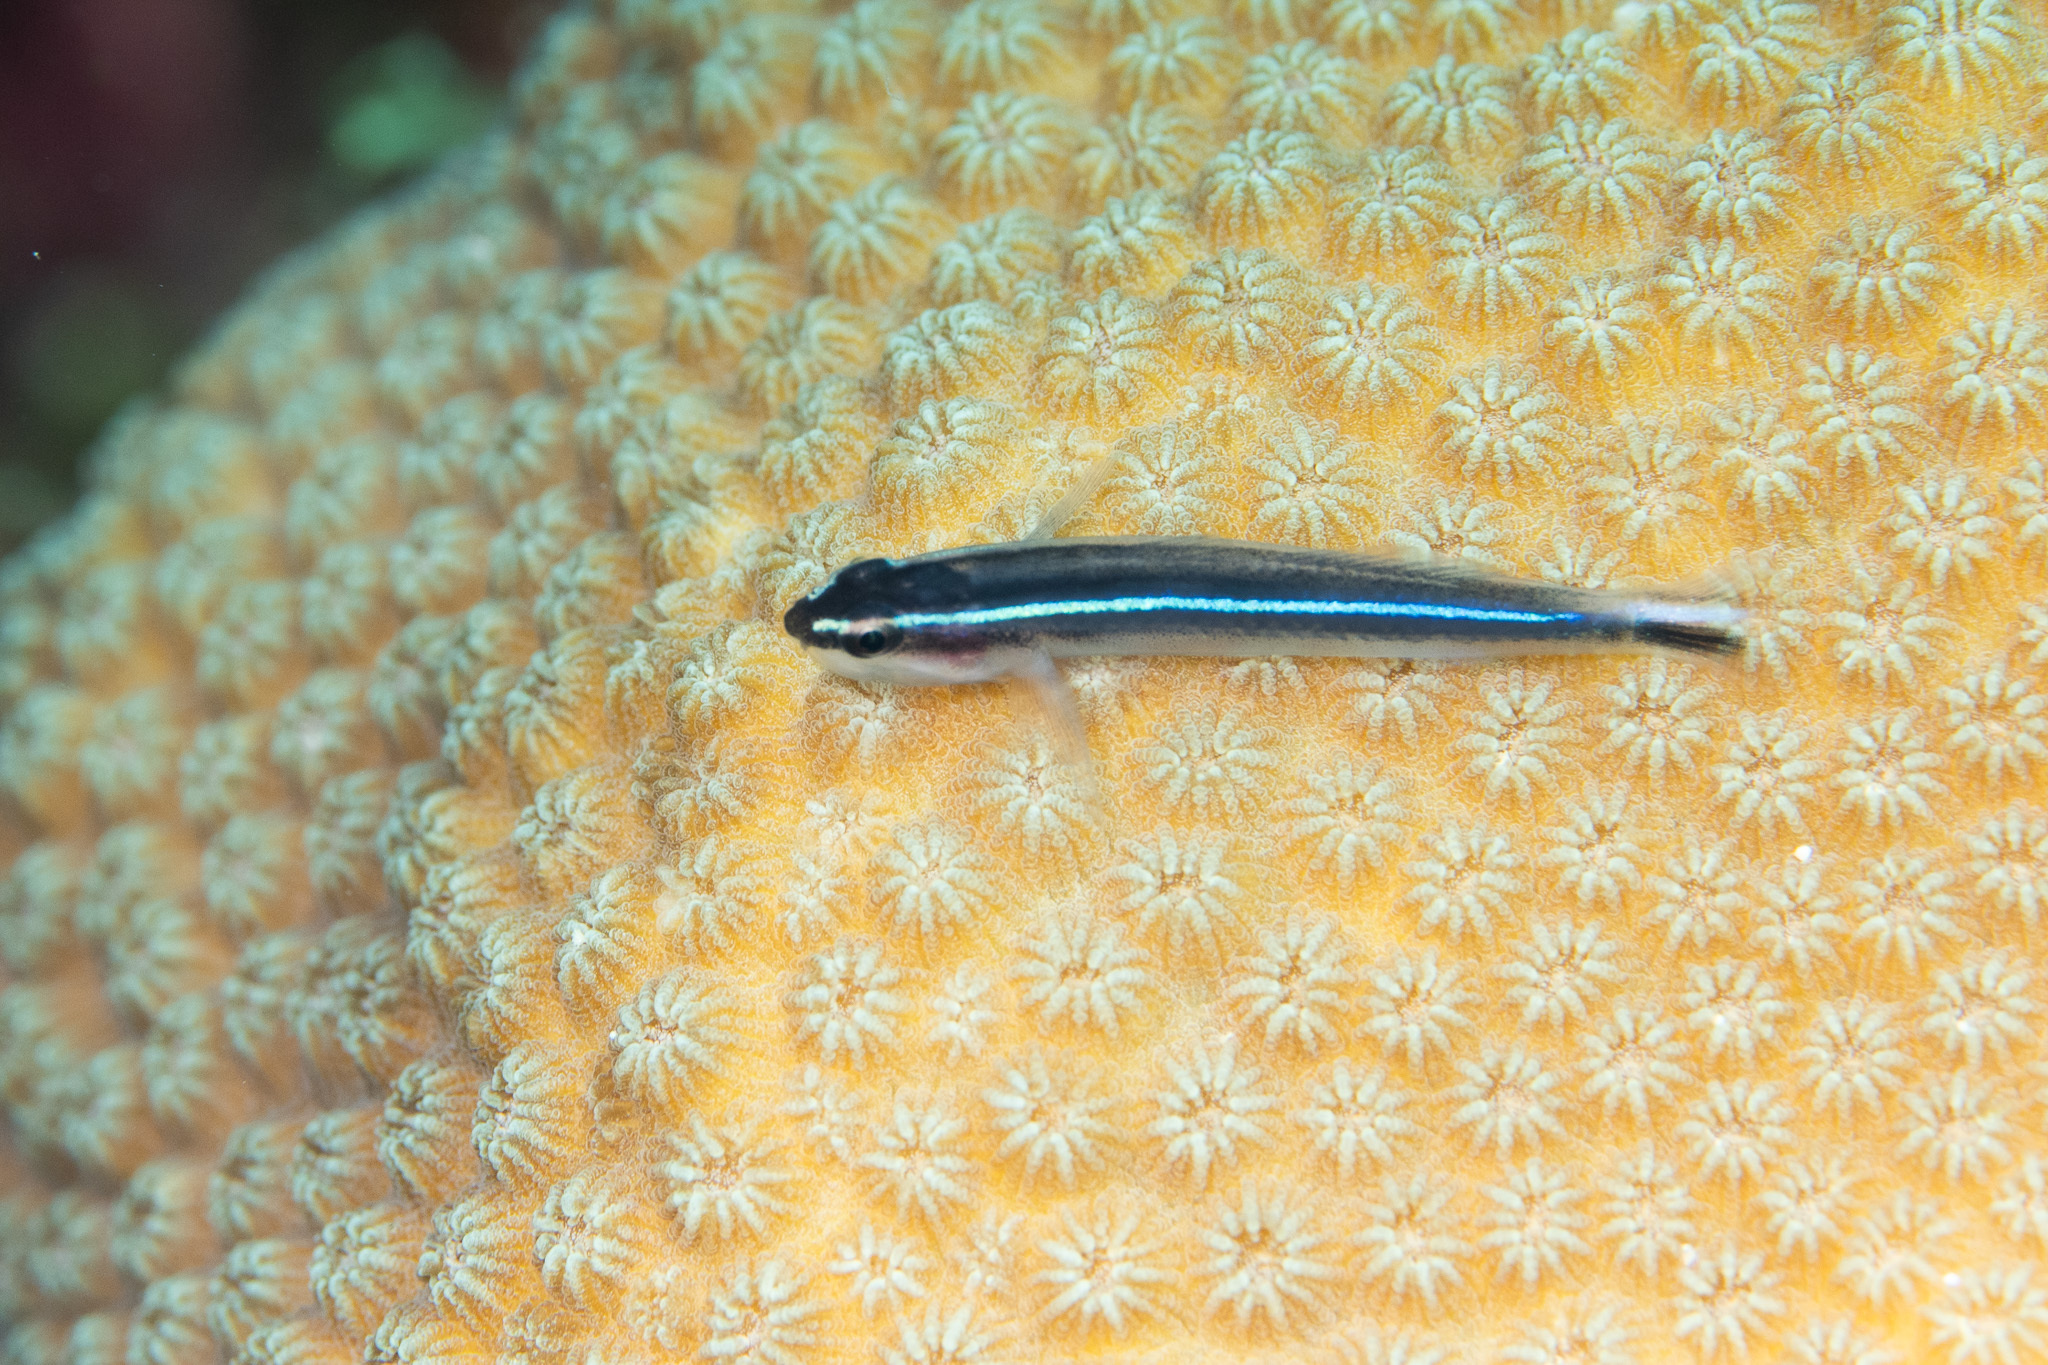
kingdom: Animalia
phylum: Chordata
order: Perciformes
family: Gobiidae
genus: Elacatinus
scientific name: Elacatinus lobeli
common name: Caribbean neon goby
